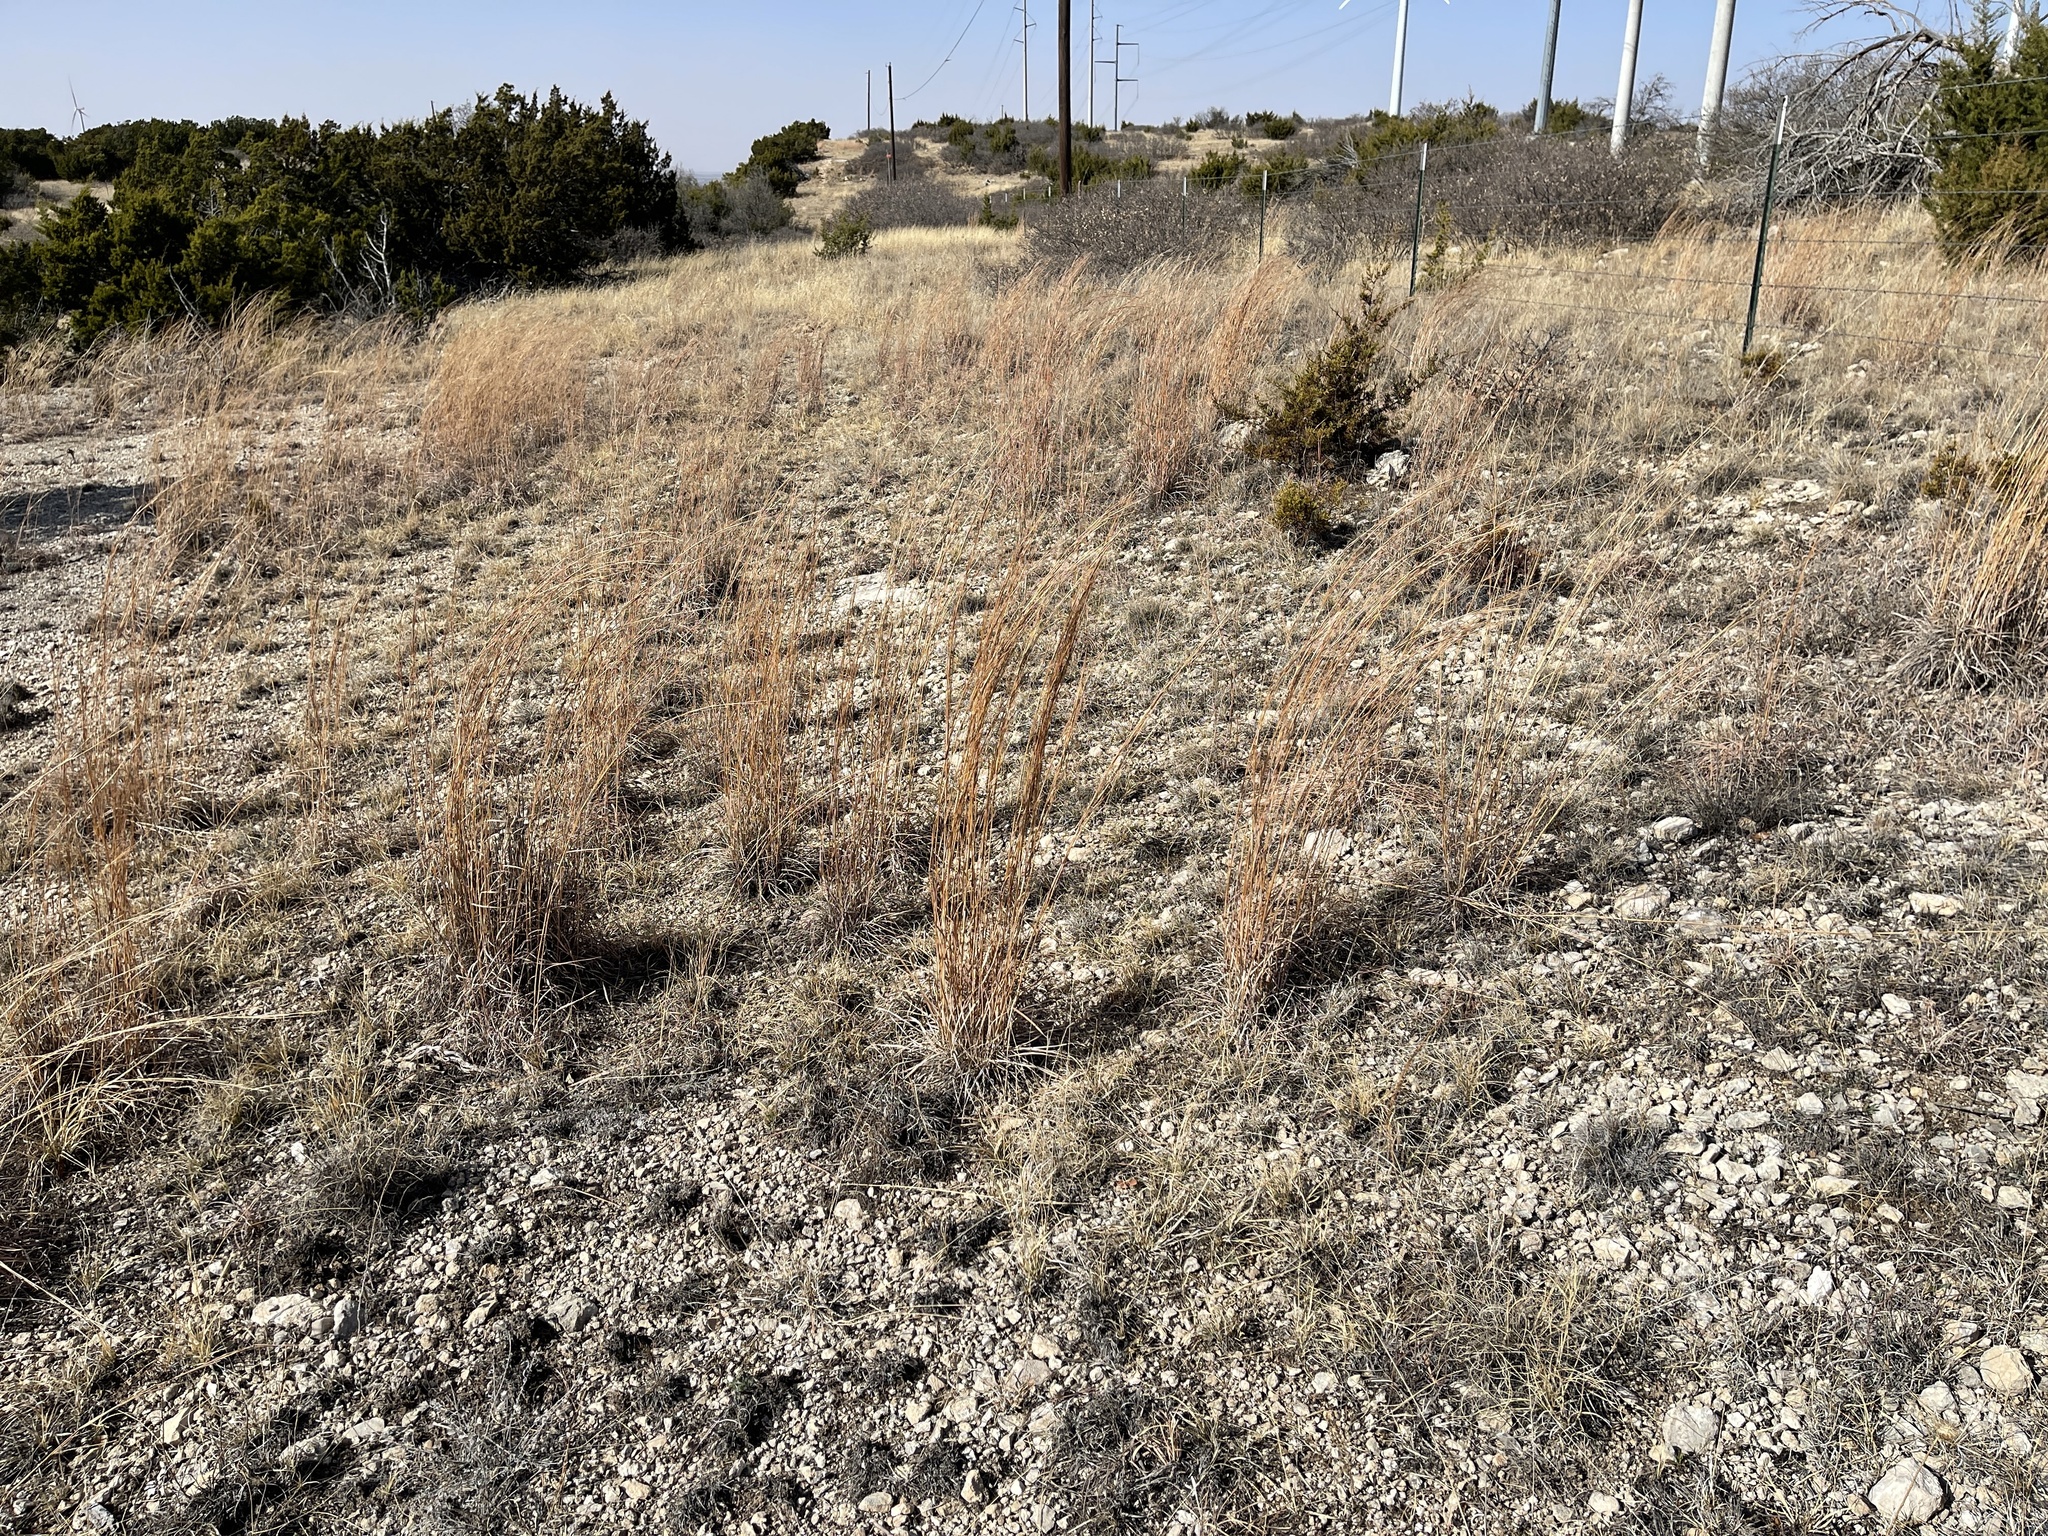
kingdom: Plantae
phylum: Tracheophyta
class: Liliopsida
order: Poales
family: Poaceae
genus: Schizachyrium
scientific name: Schizachyrium scoparium
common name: Little bluestem
